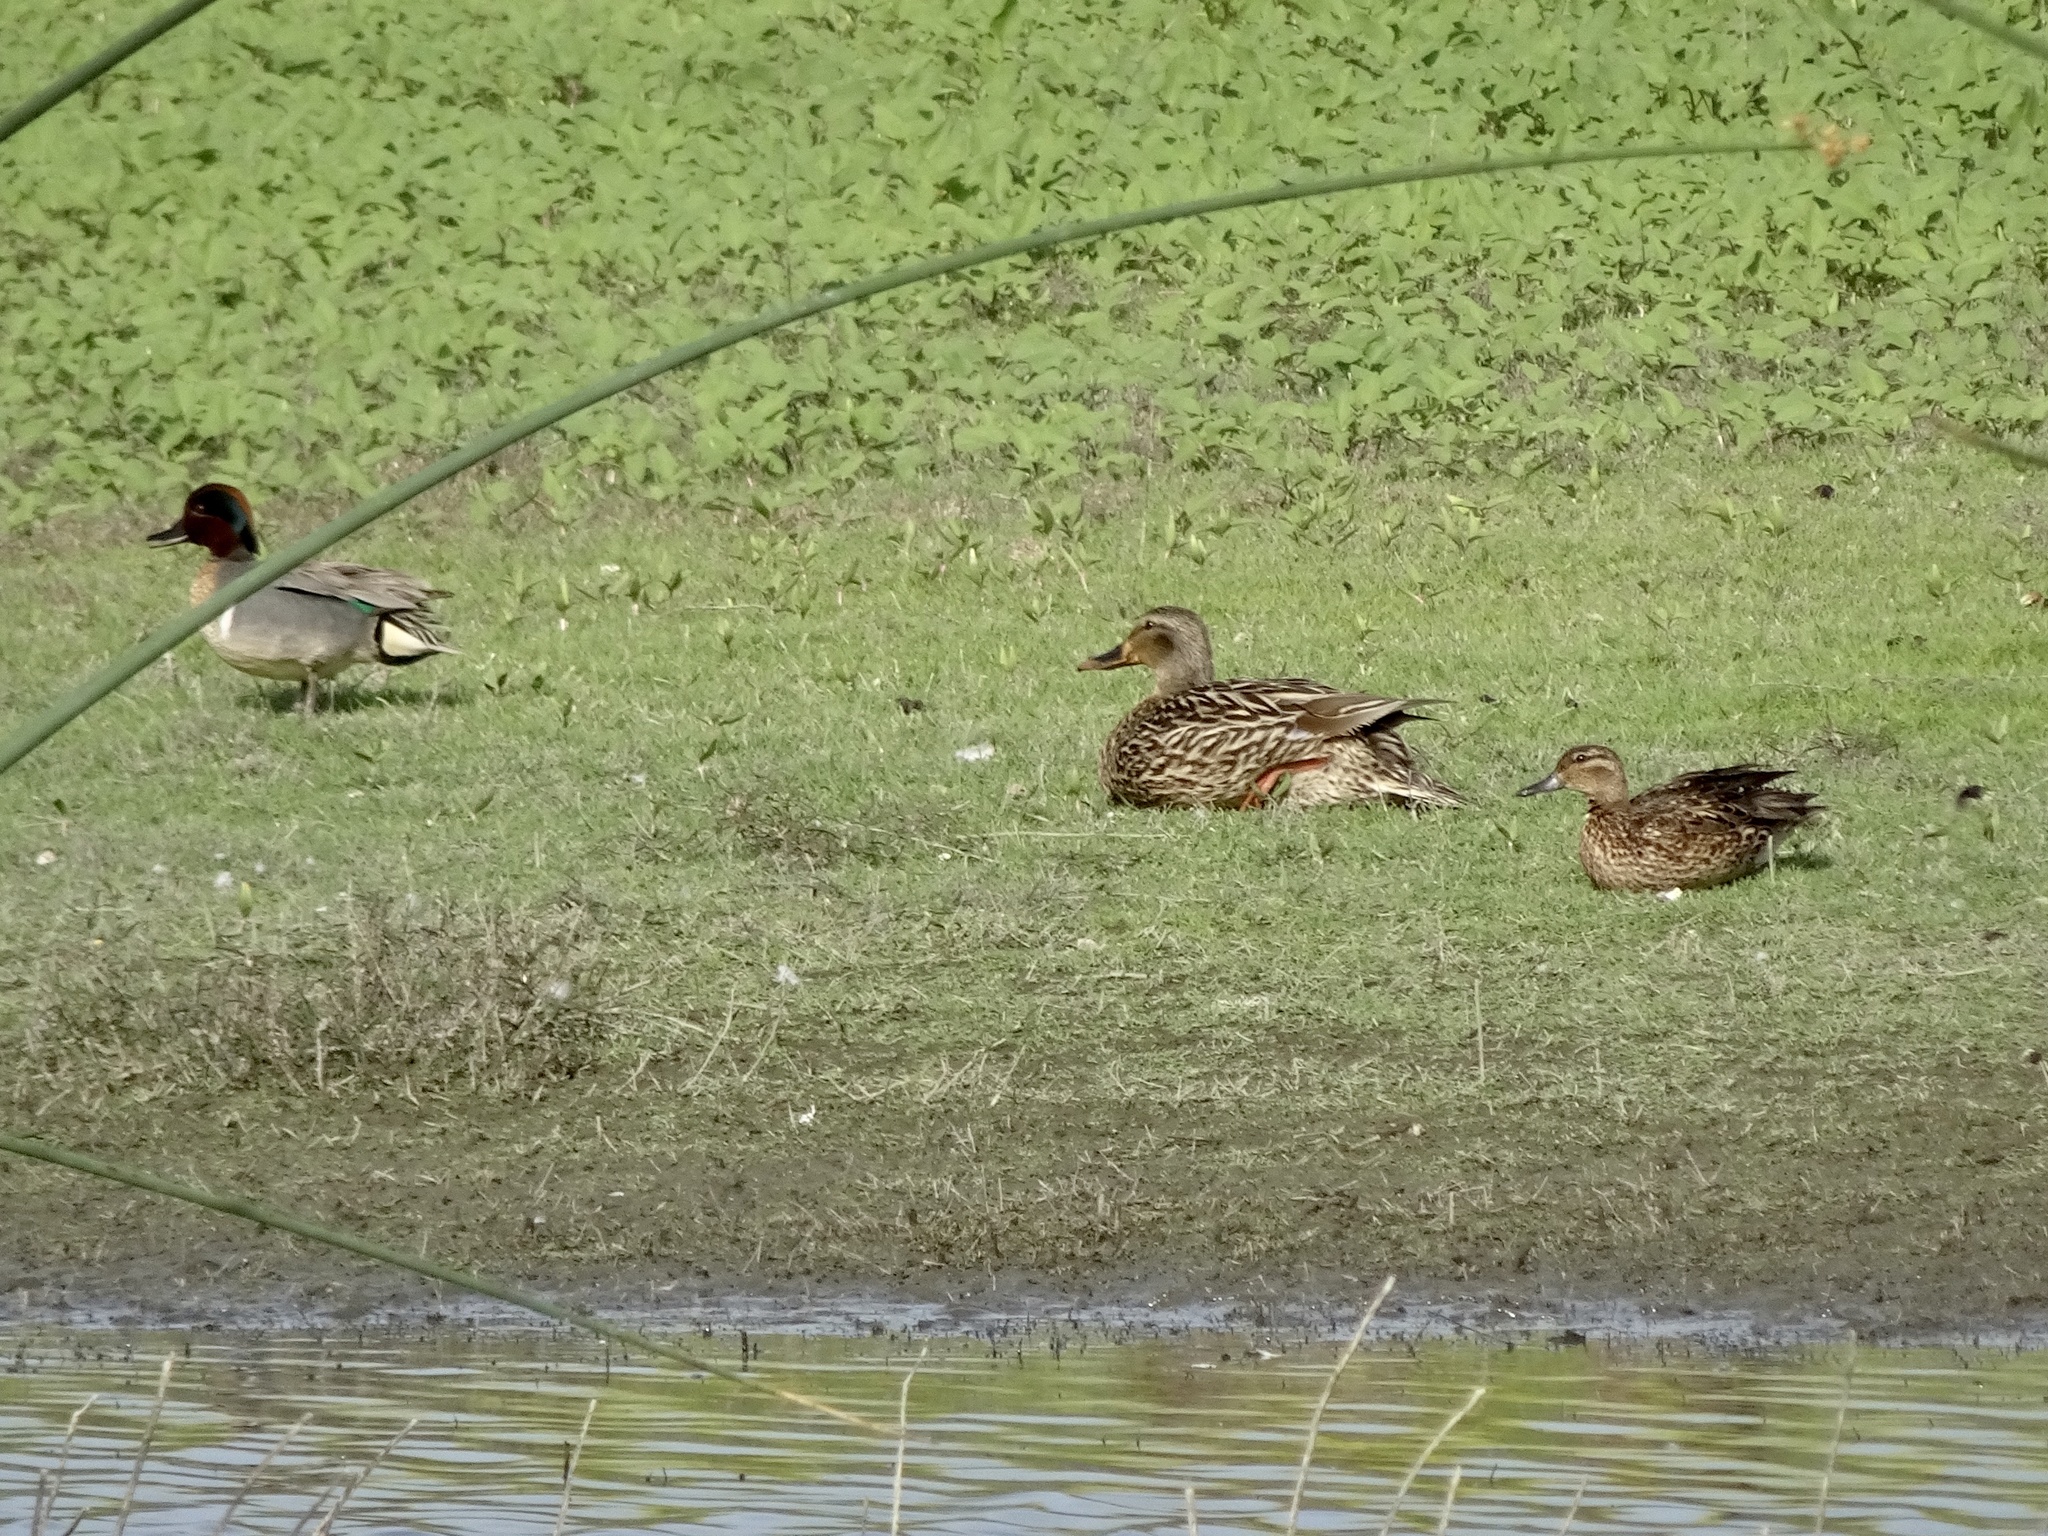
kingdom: Animalia
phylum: Chordata
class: Aves
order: Anseriformes
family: Anatidae
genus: Anas
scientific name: Anas crecca
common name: Eurasian teal
